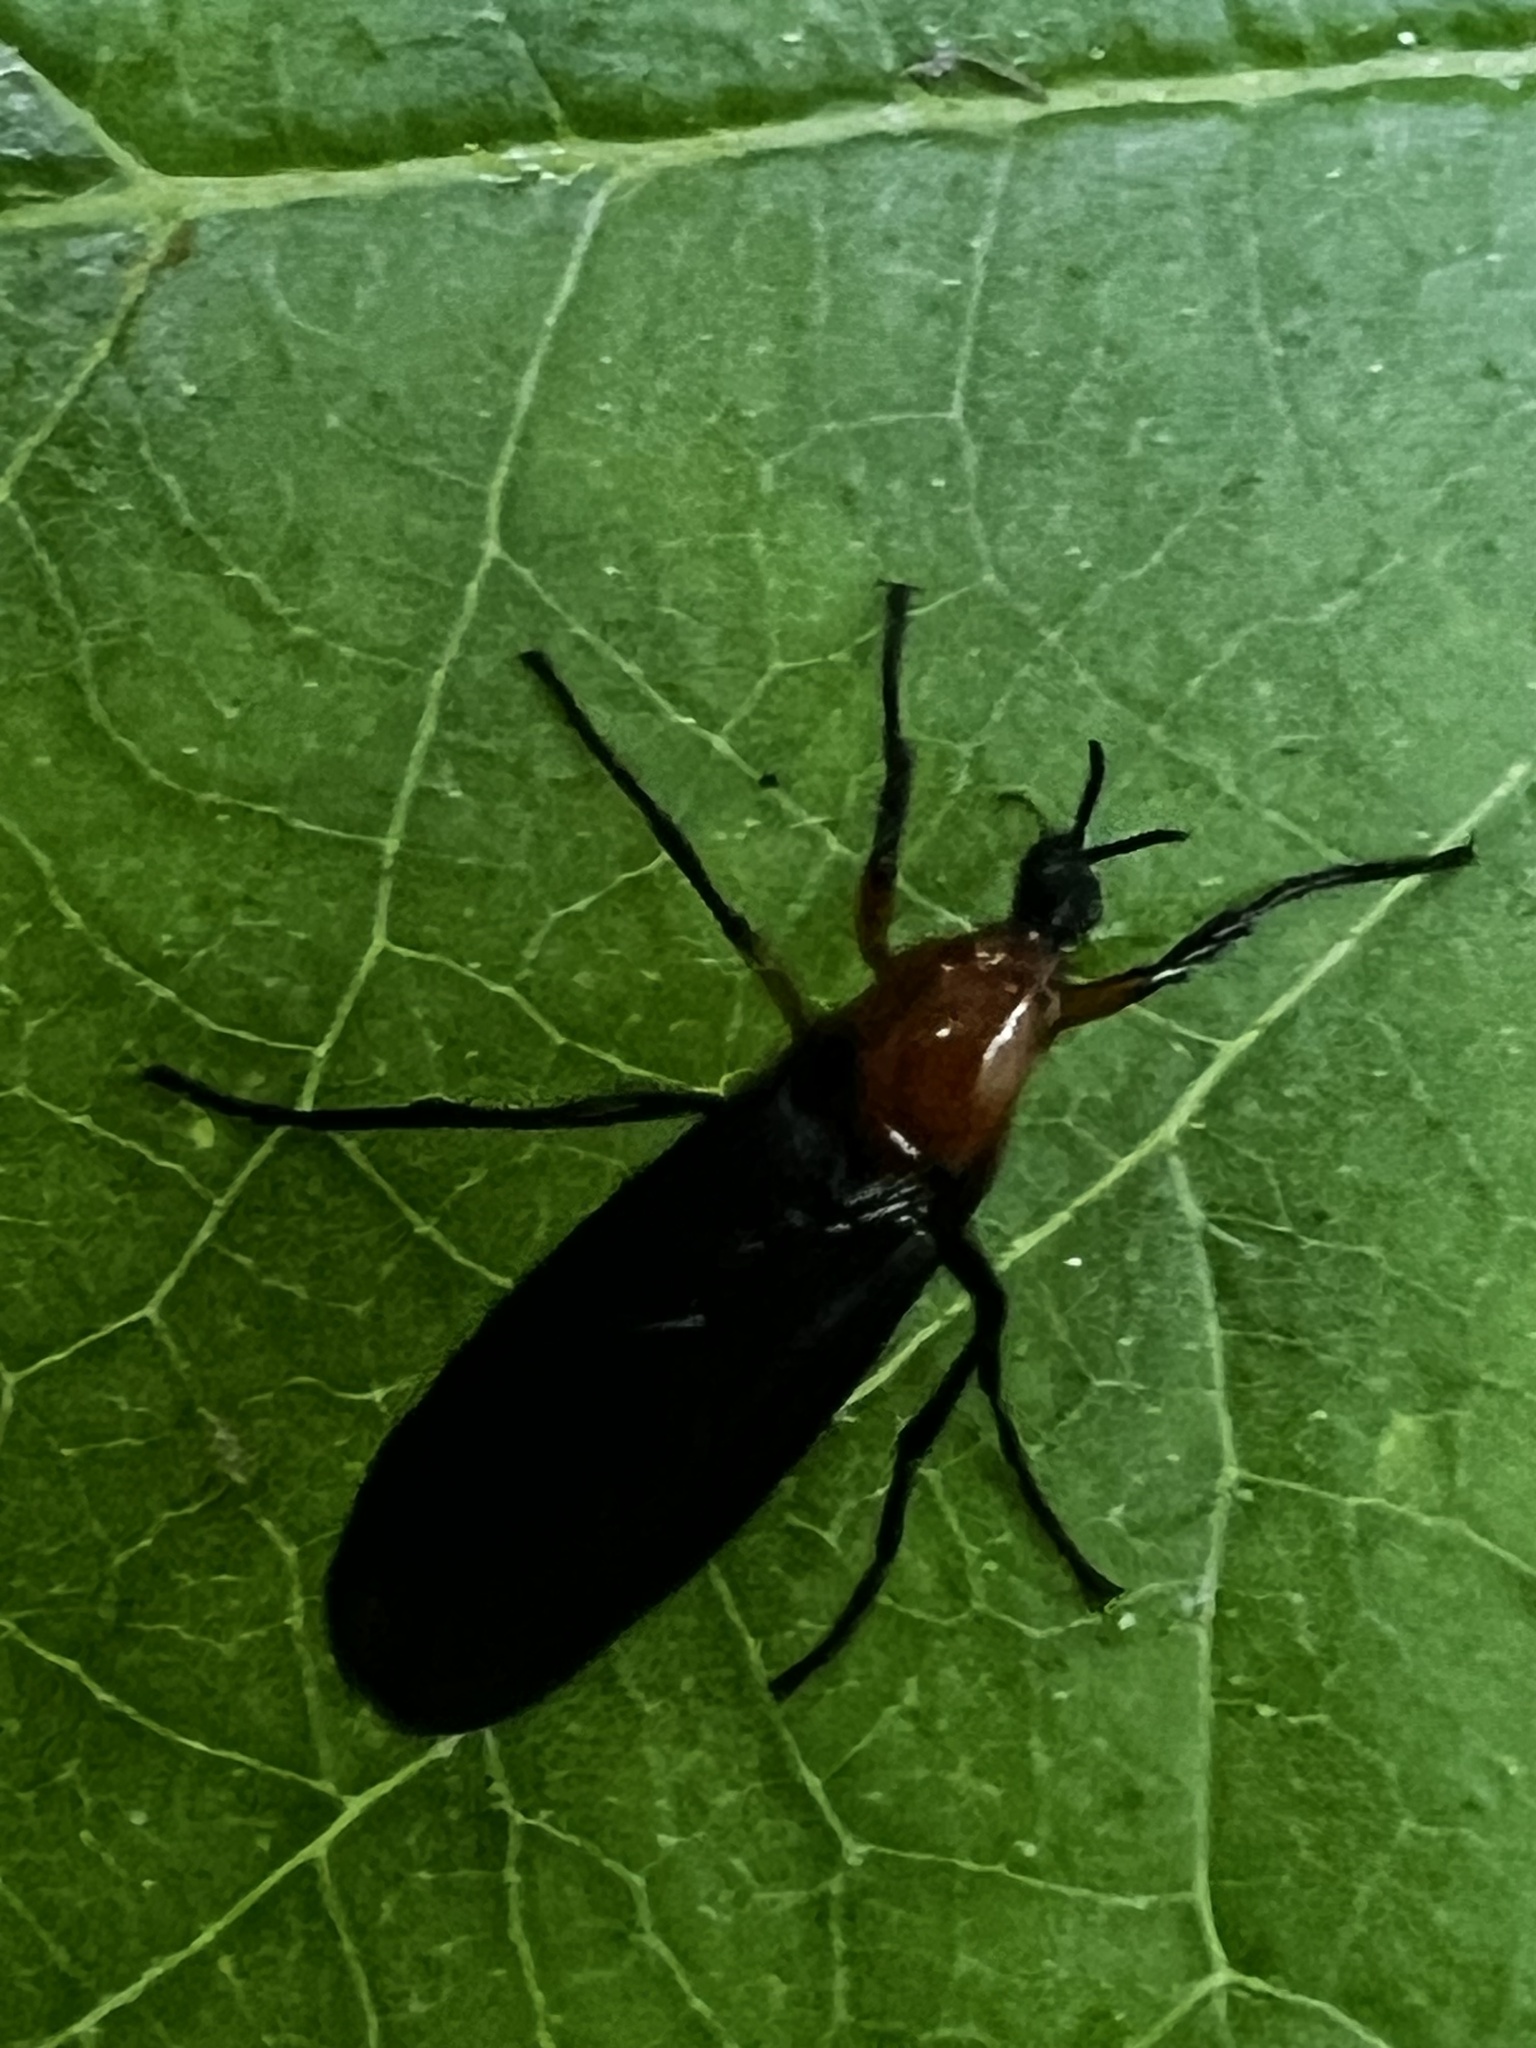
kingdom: Animalia
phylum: Arthropoda
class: Insecta
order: Diptera
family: Bibionidae
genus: Dilophus
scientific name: Dilophus spinipes
